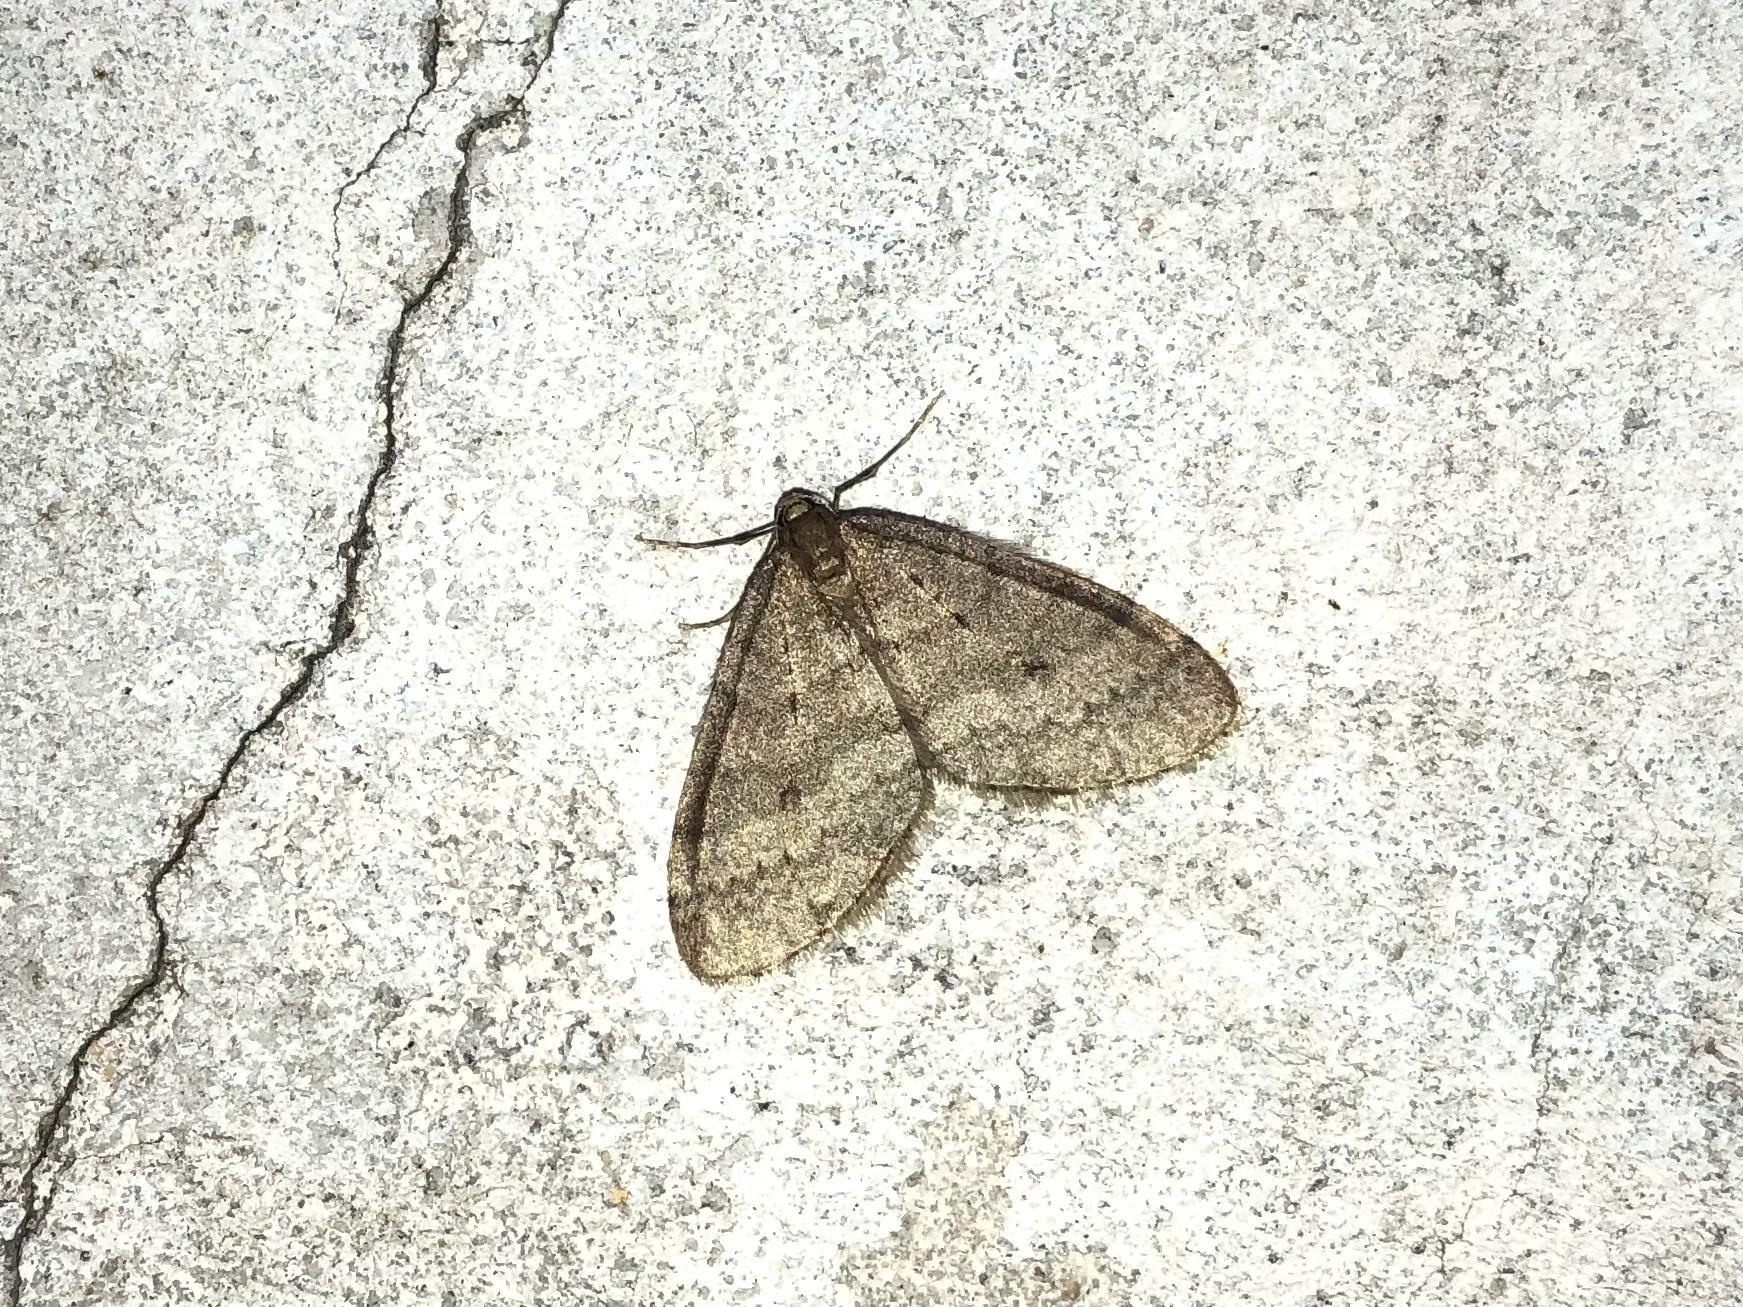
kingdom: Animalia
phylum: Arthropoda
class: Insecta
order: Lepidoptera
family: Geometridae
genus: Operophtera
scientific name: Operophtera brumata
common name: Winter moth
